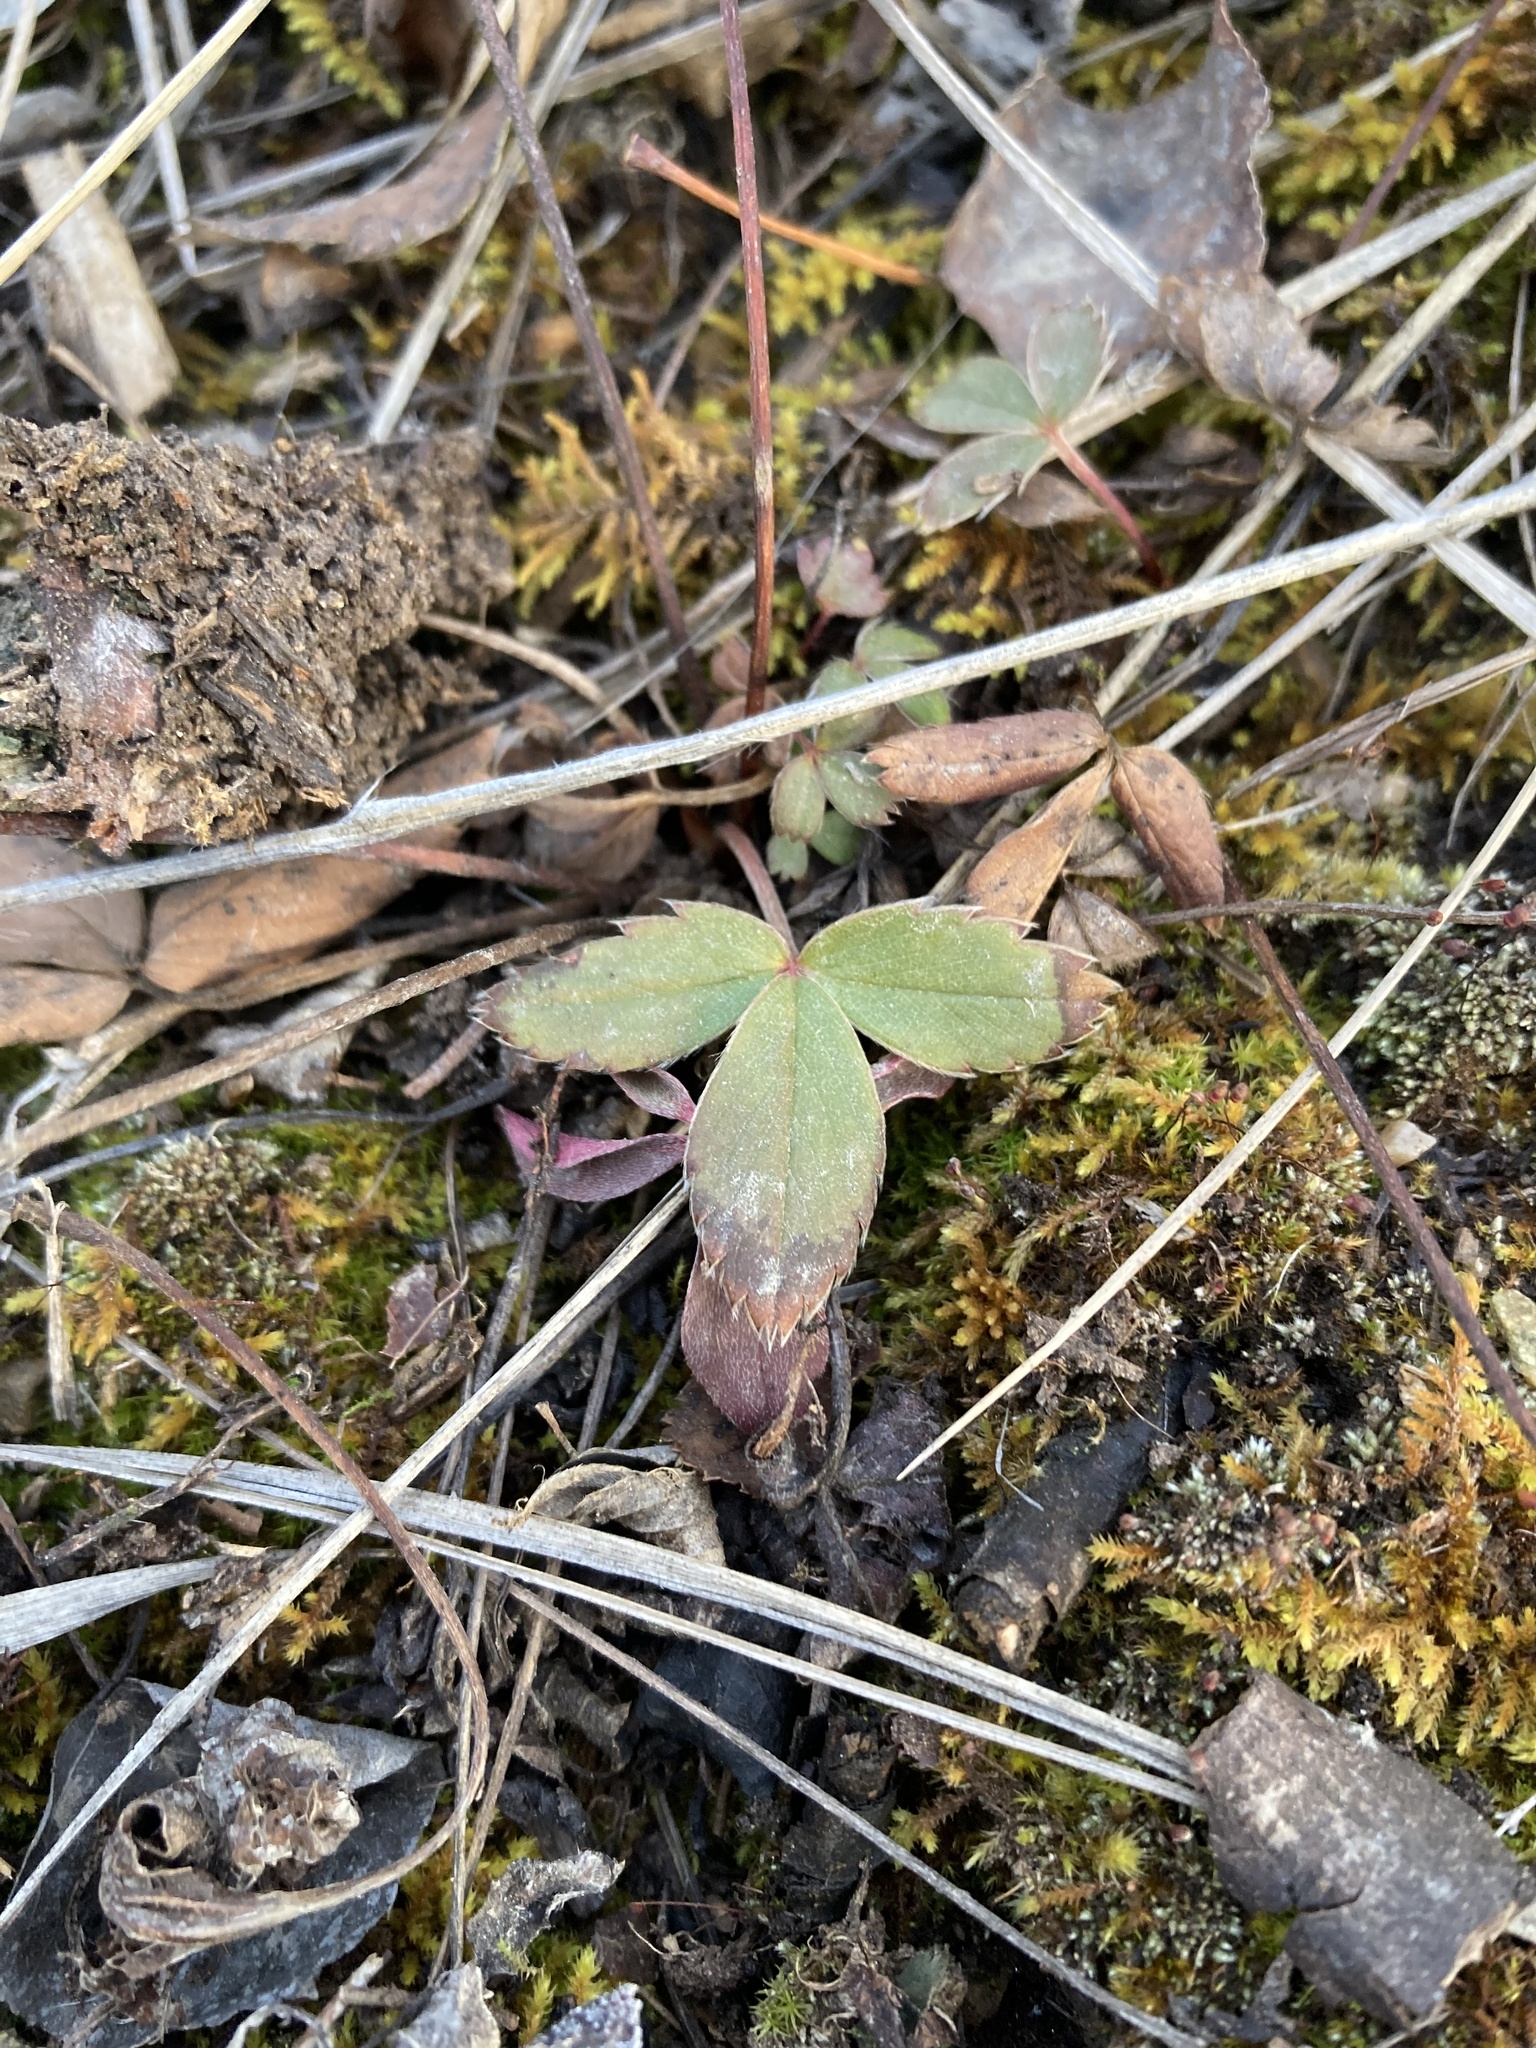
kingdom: Plantae
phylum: Tracheophyta
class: Magnoliopsida
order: Rosales
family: Rosaceae
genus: Fragaria
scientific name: Fragaria virginiana
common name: Thickleaved wild strawberry
